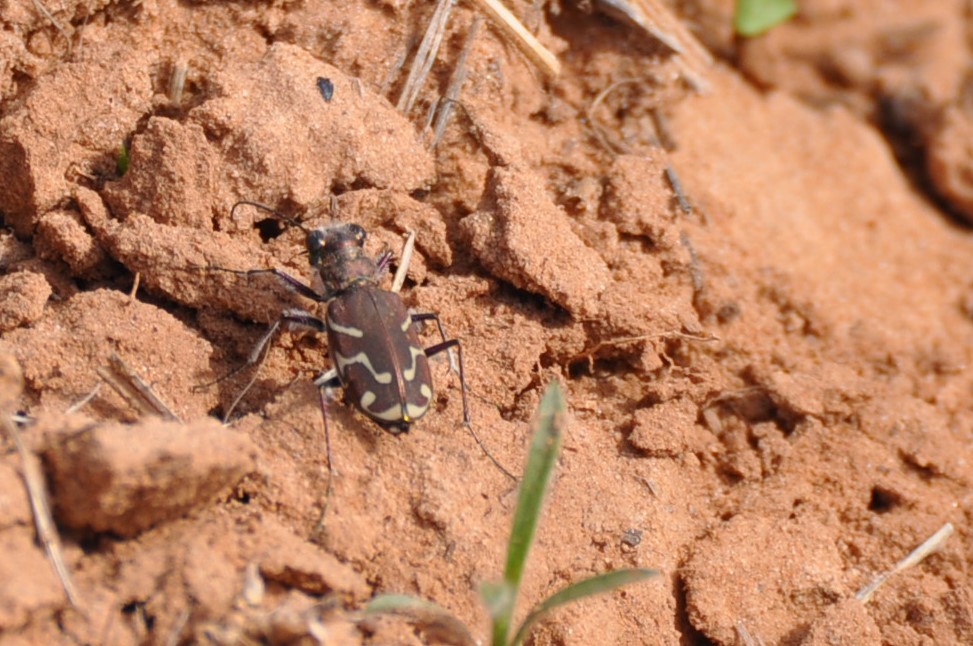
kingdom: Animalia
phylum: Arthropoda
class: Insecta
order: Coleoptera
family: Carabidae
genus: Cicindela
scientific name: Cicindela tranquebarica
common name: Oblique-lined tiger beetle
